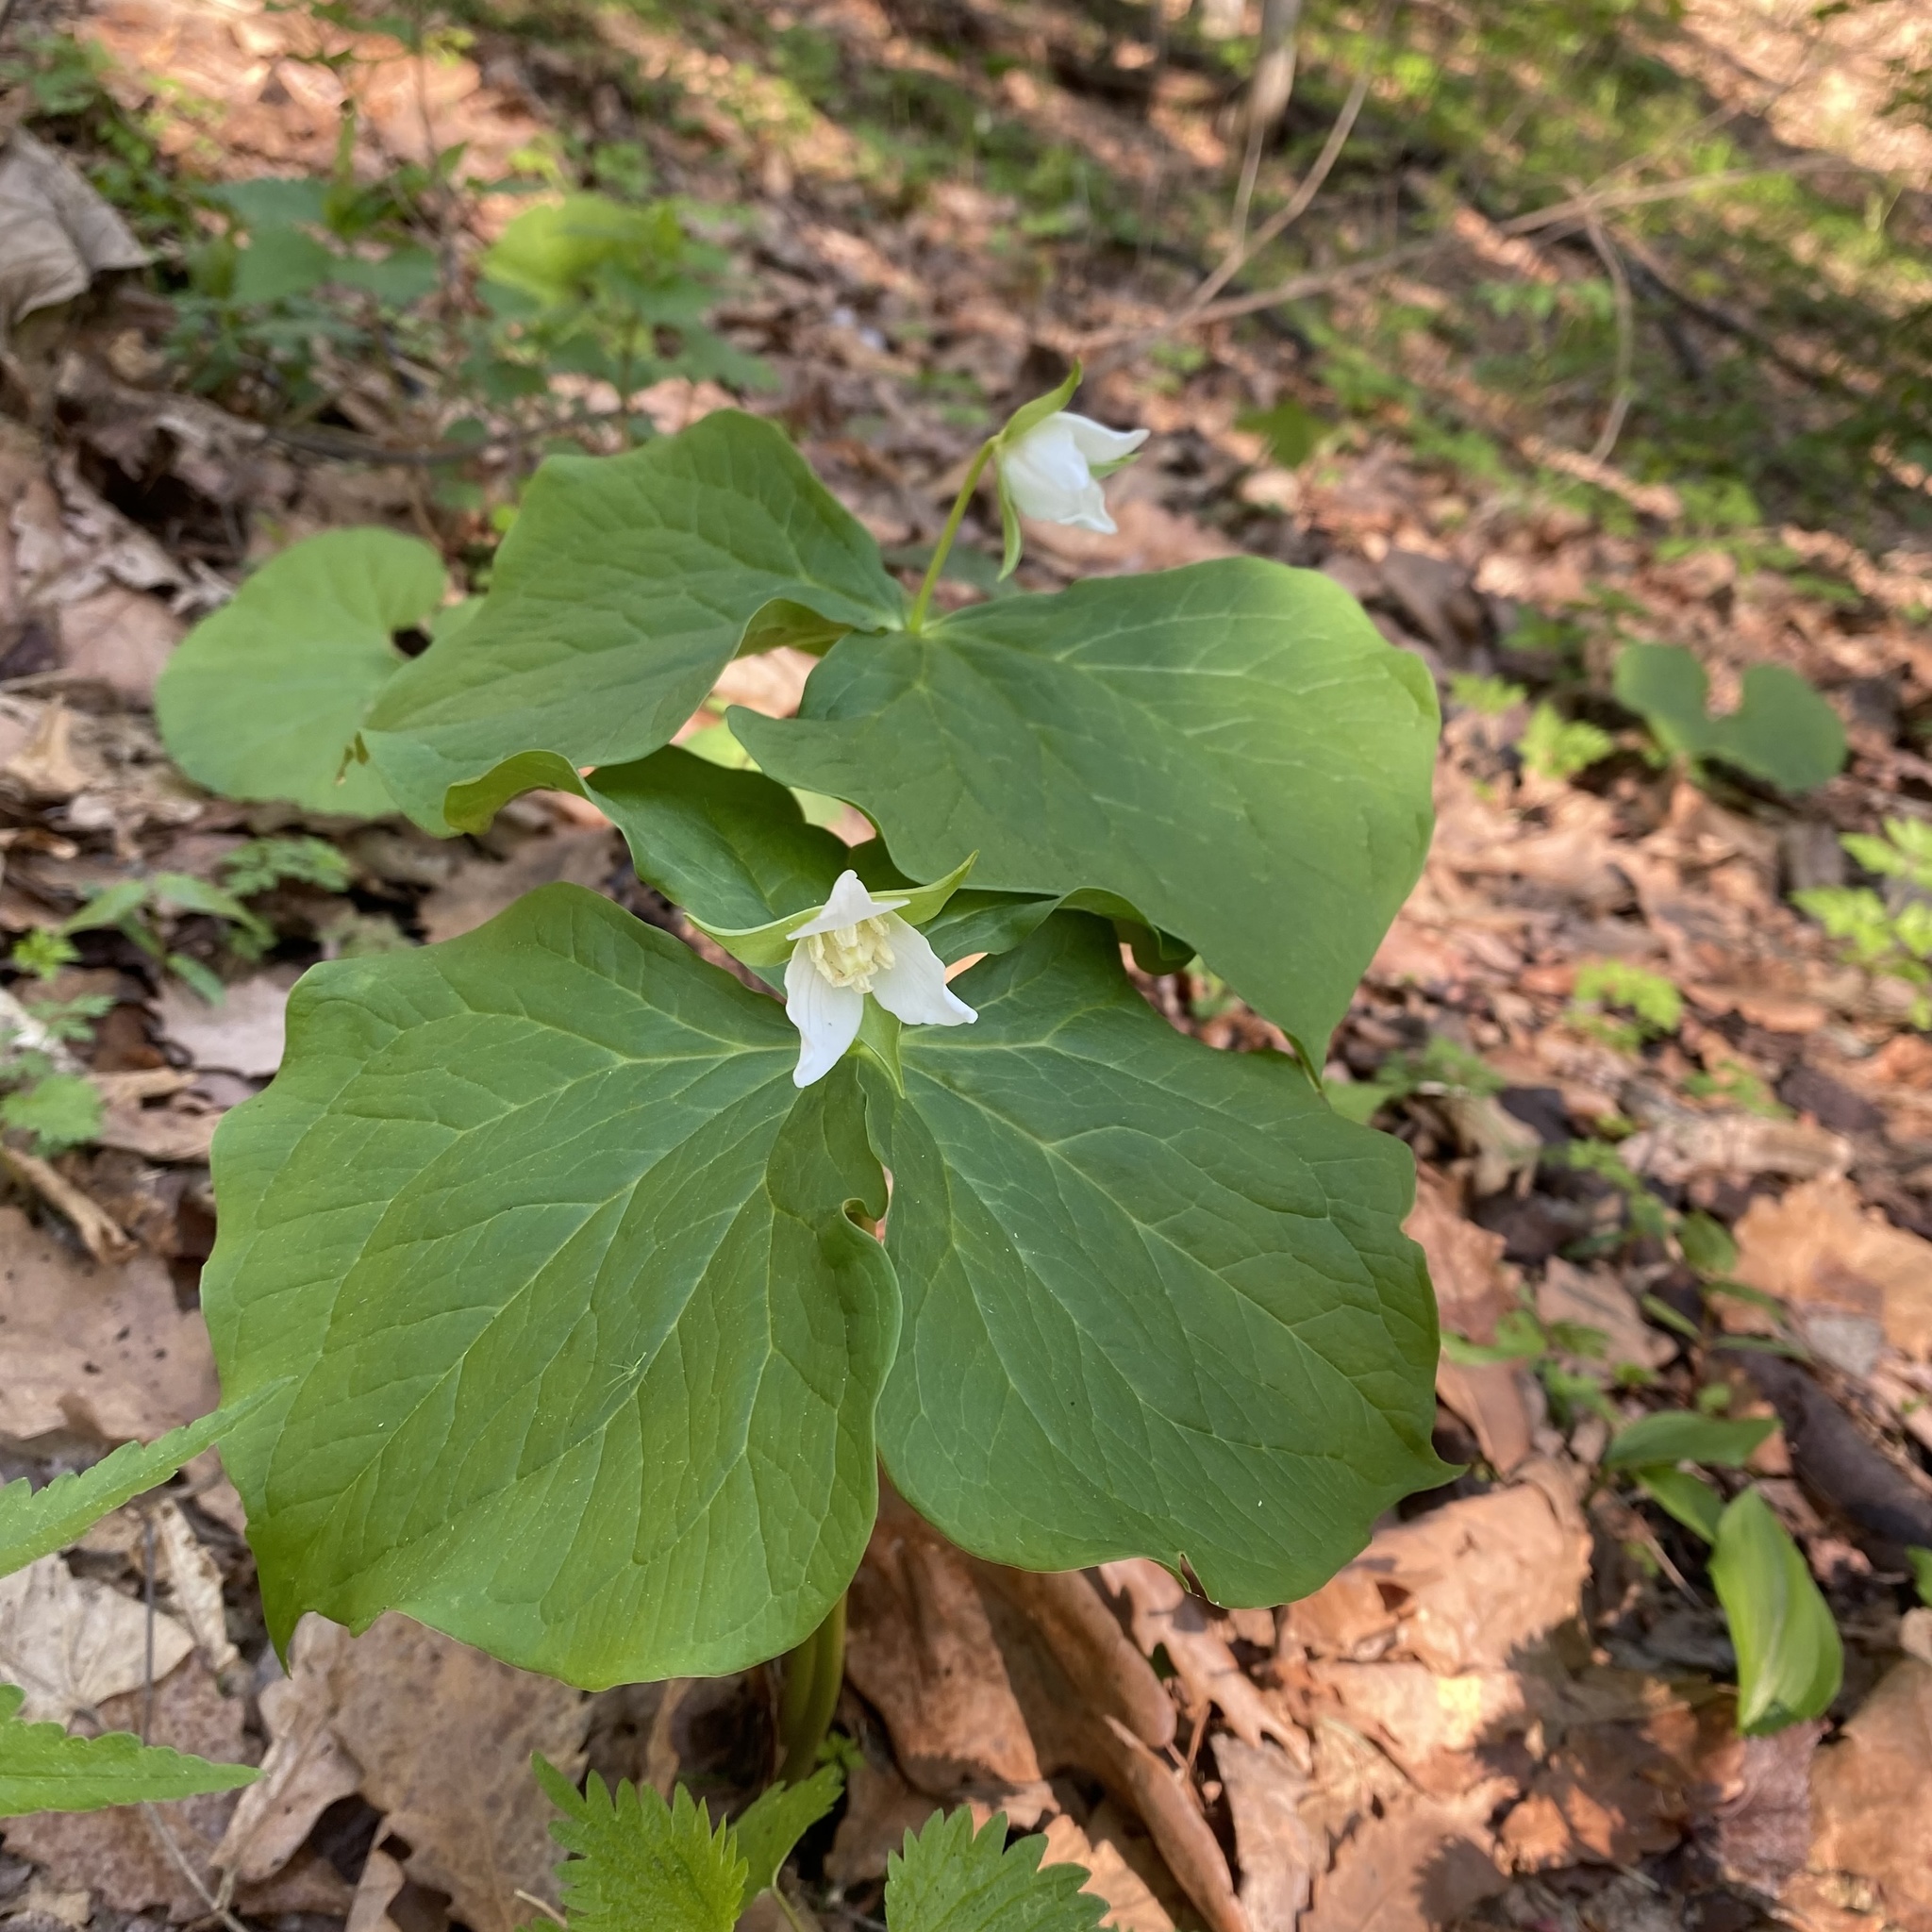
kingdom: Plantae
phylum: Tracheophyta
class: Liliopsida
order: Liliales
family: Melanthiaceae
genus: Trillium
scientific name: Trillium tschonoskii
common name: A pearl on head
